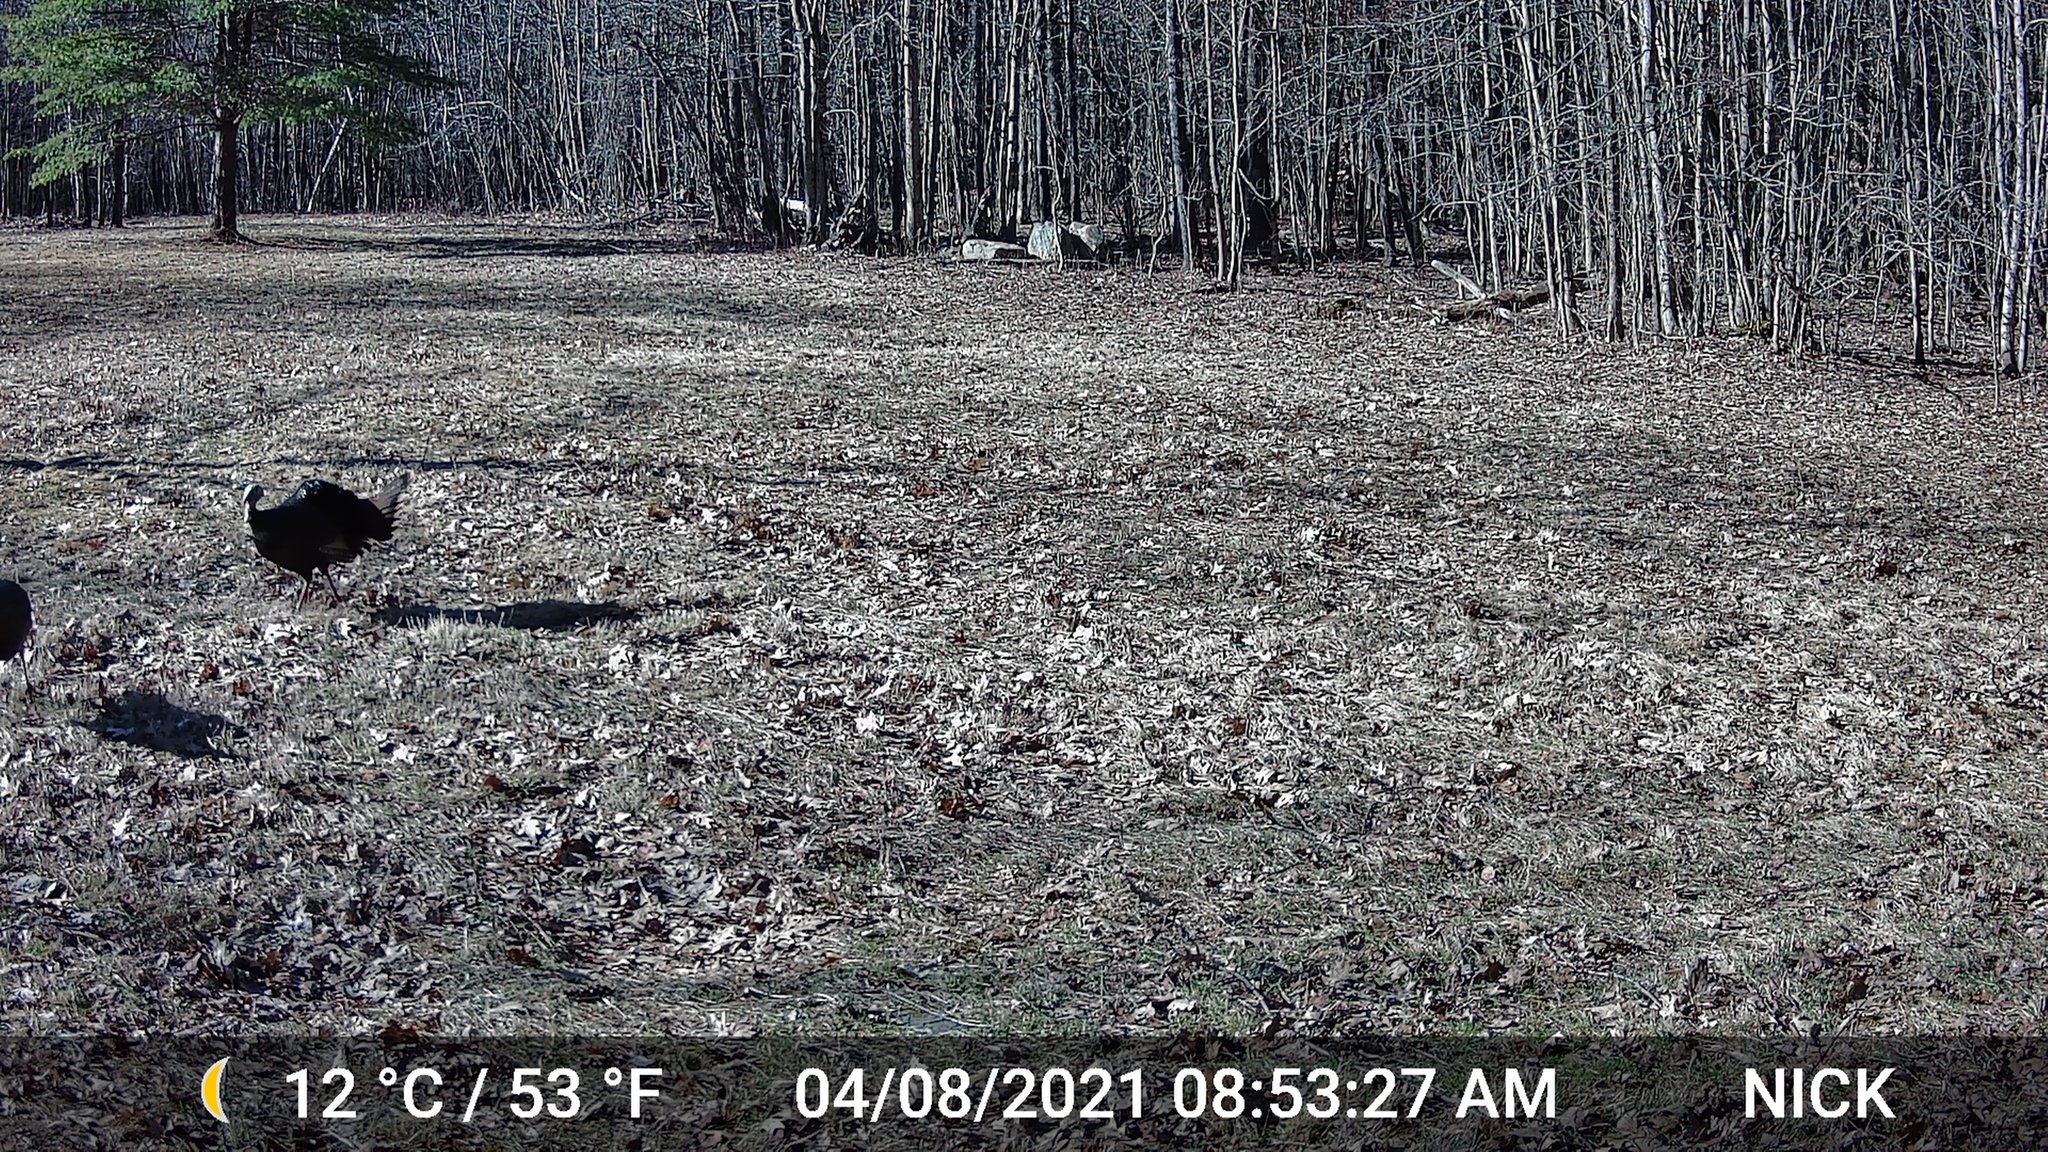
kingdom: Animalia
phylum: Chordata
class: Aves
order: Galliformes
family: Phasianidae
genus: Meleagris
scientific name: Meleagris gallopavo
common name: Wild turkey
